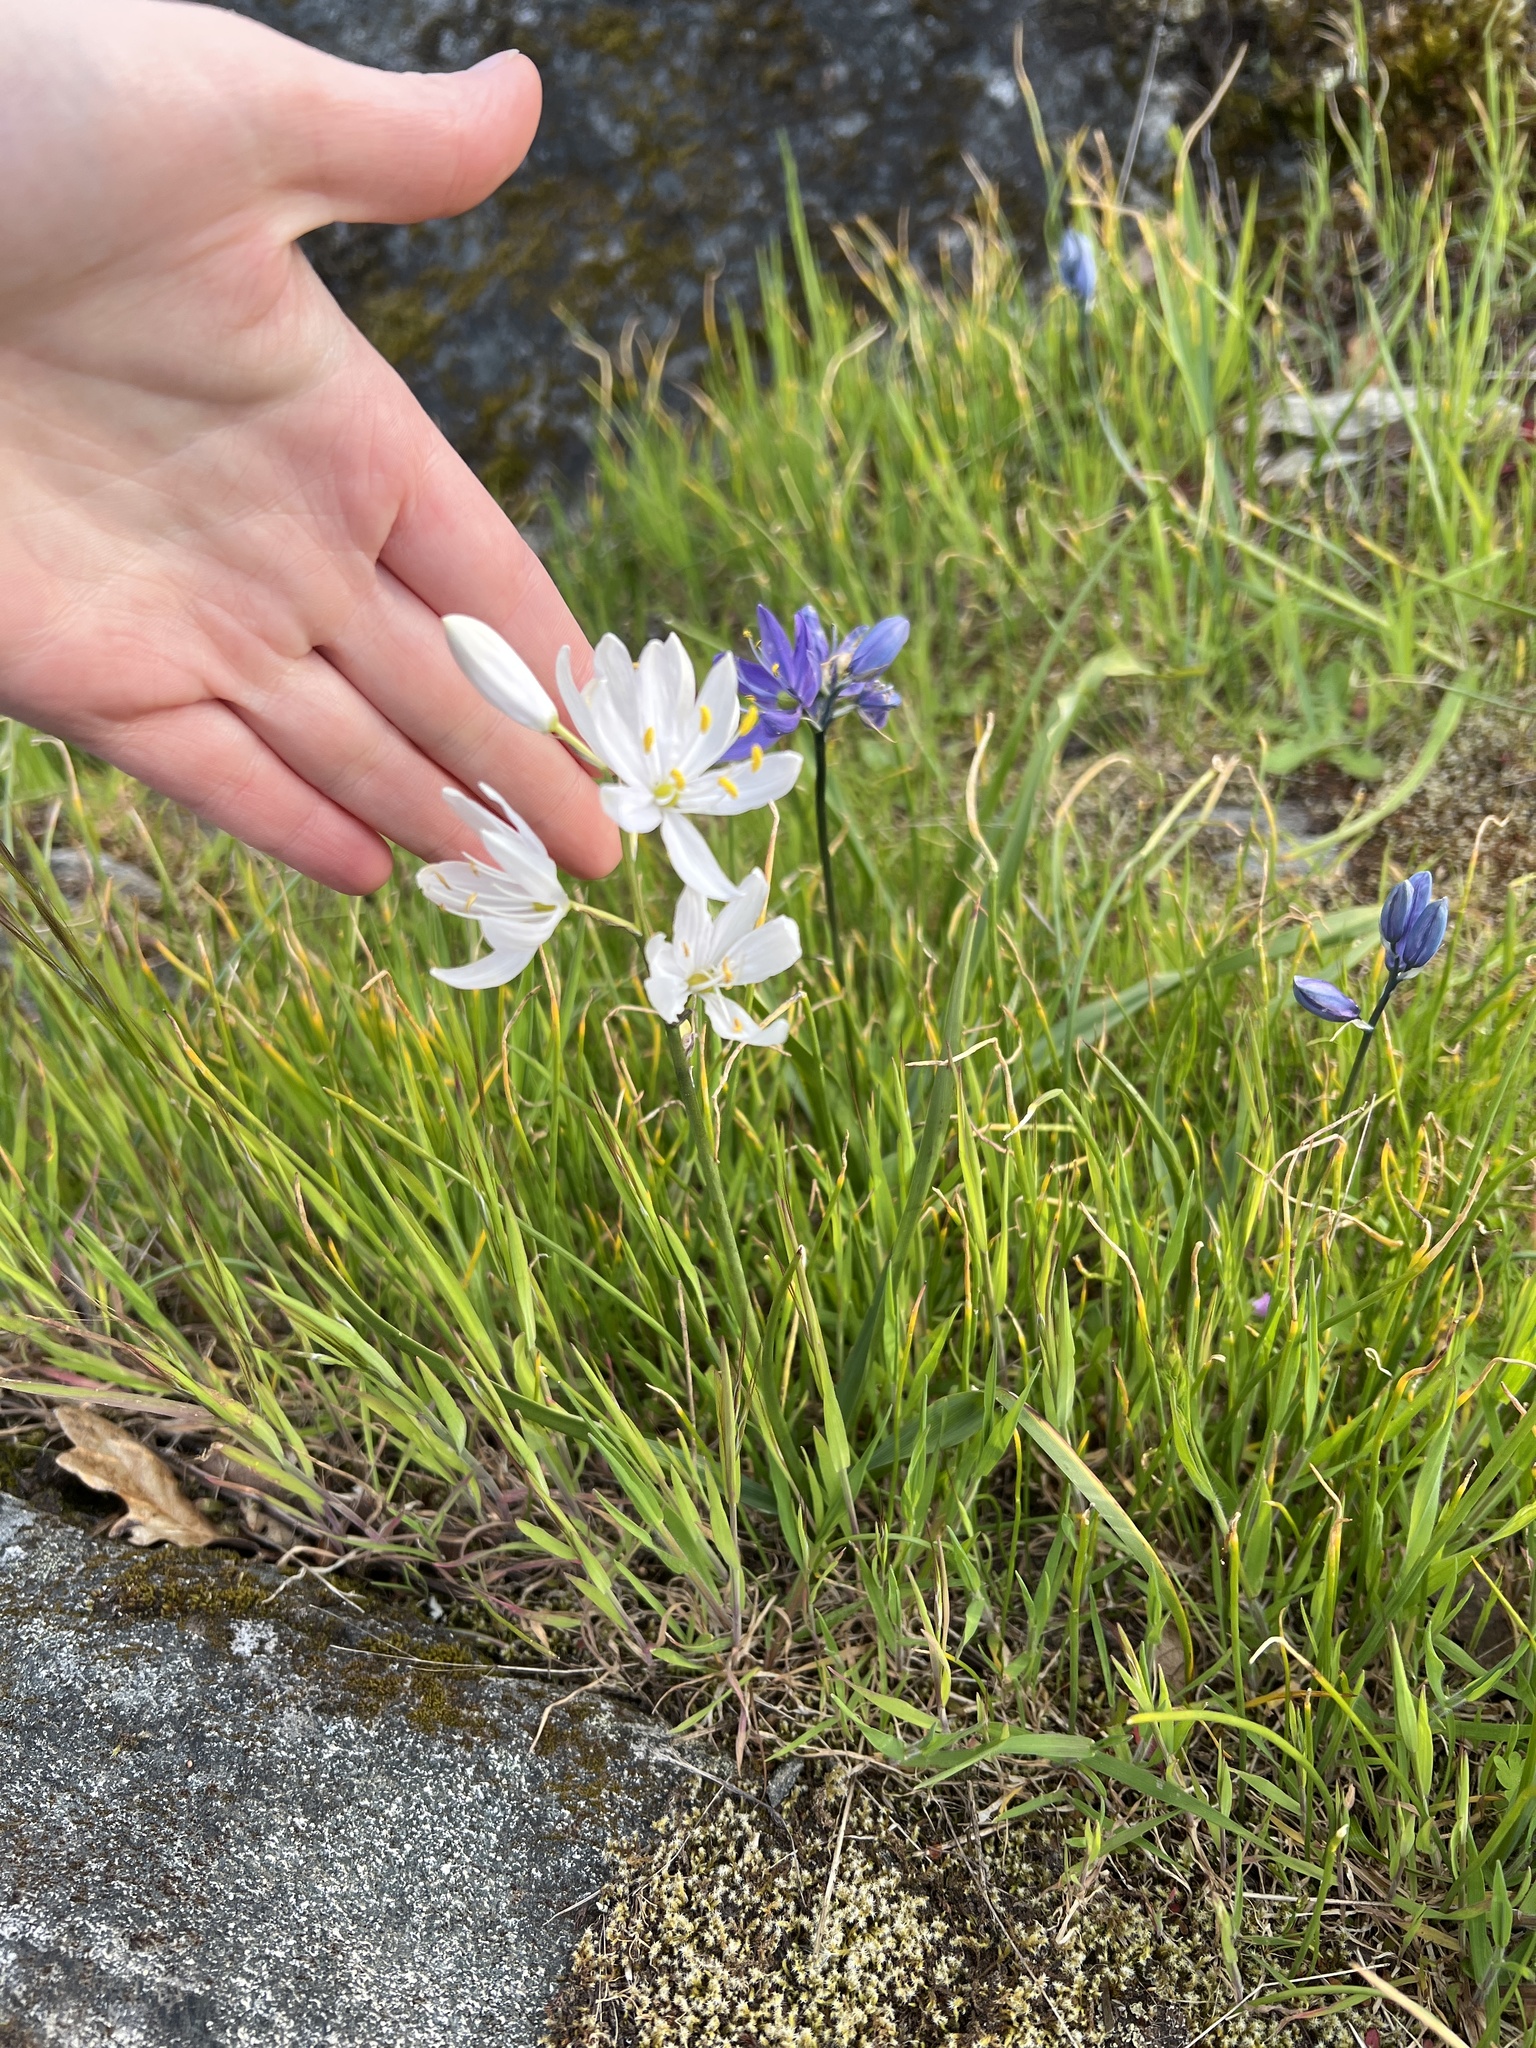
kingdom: Plantae
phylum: Tracheophyta
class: Liliopsida
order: Asparagales
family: Asparagaceae
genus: Camassia
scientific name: Camassia quamash
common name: Common camas
